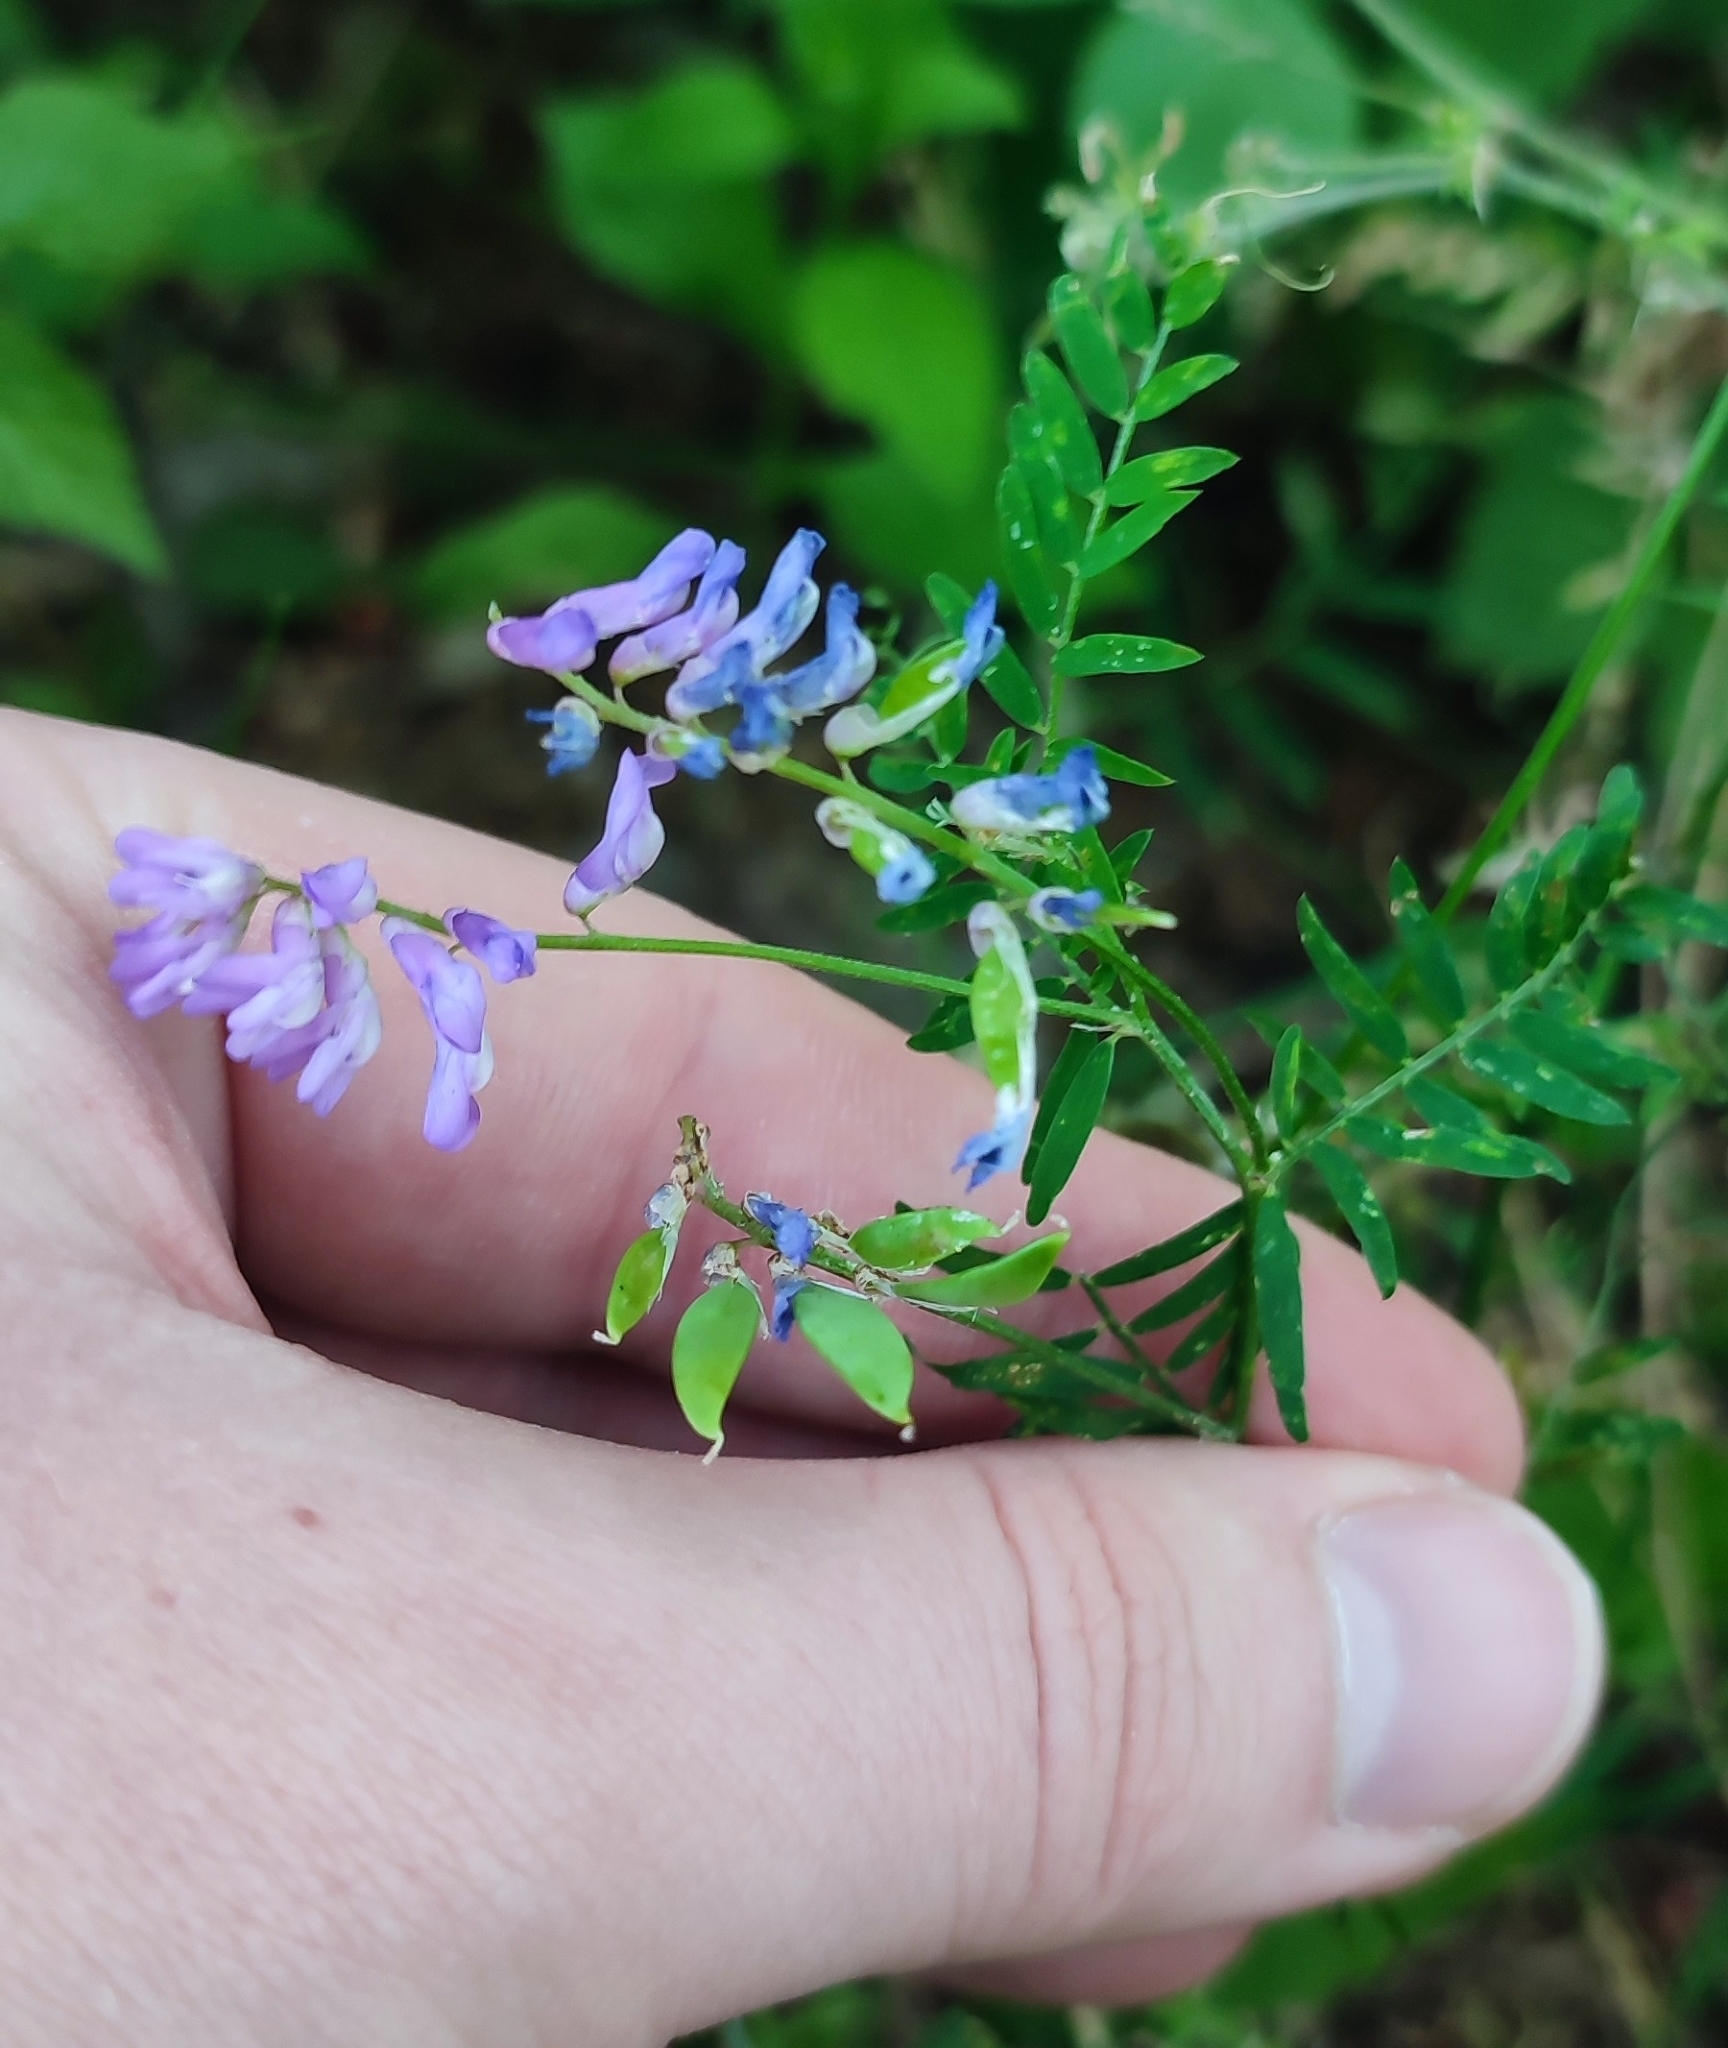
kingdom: Plantae
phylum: Tracheophyta
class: Magnoliopsida
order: Fabales
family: Fabaceae
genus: Vicia
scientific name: Vicia cracca
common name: Bird vetch
